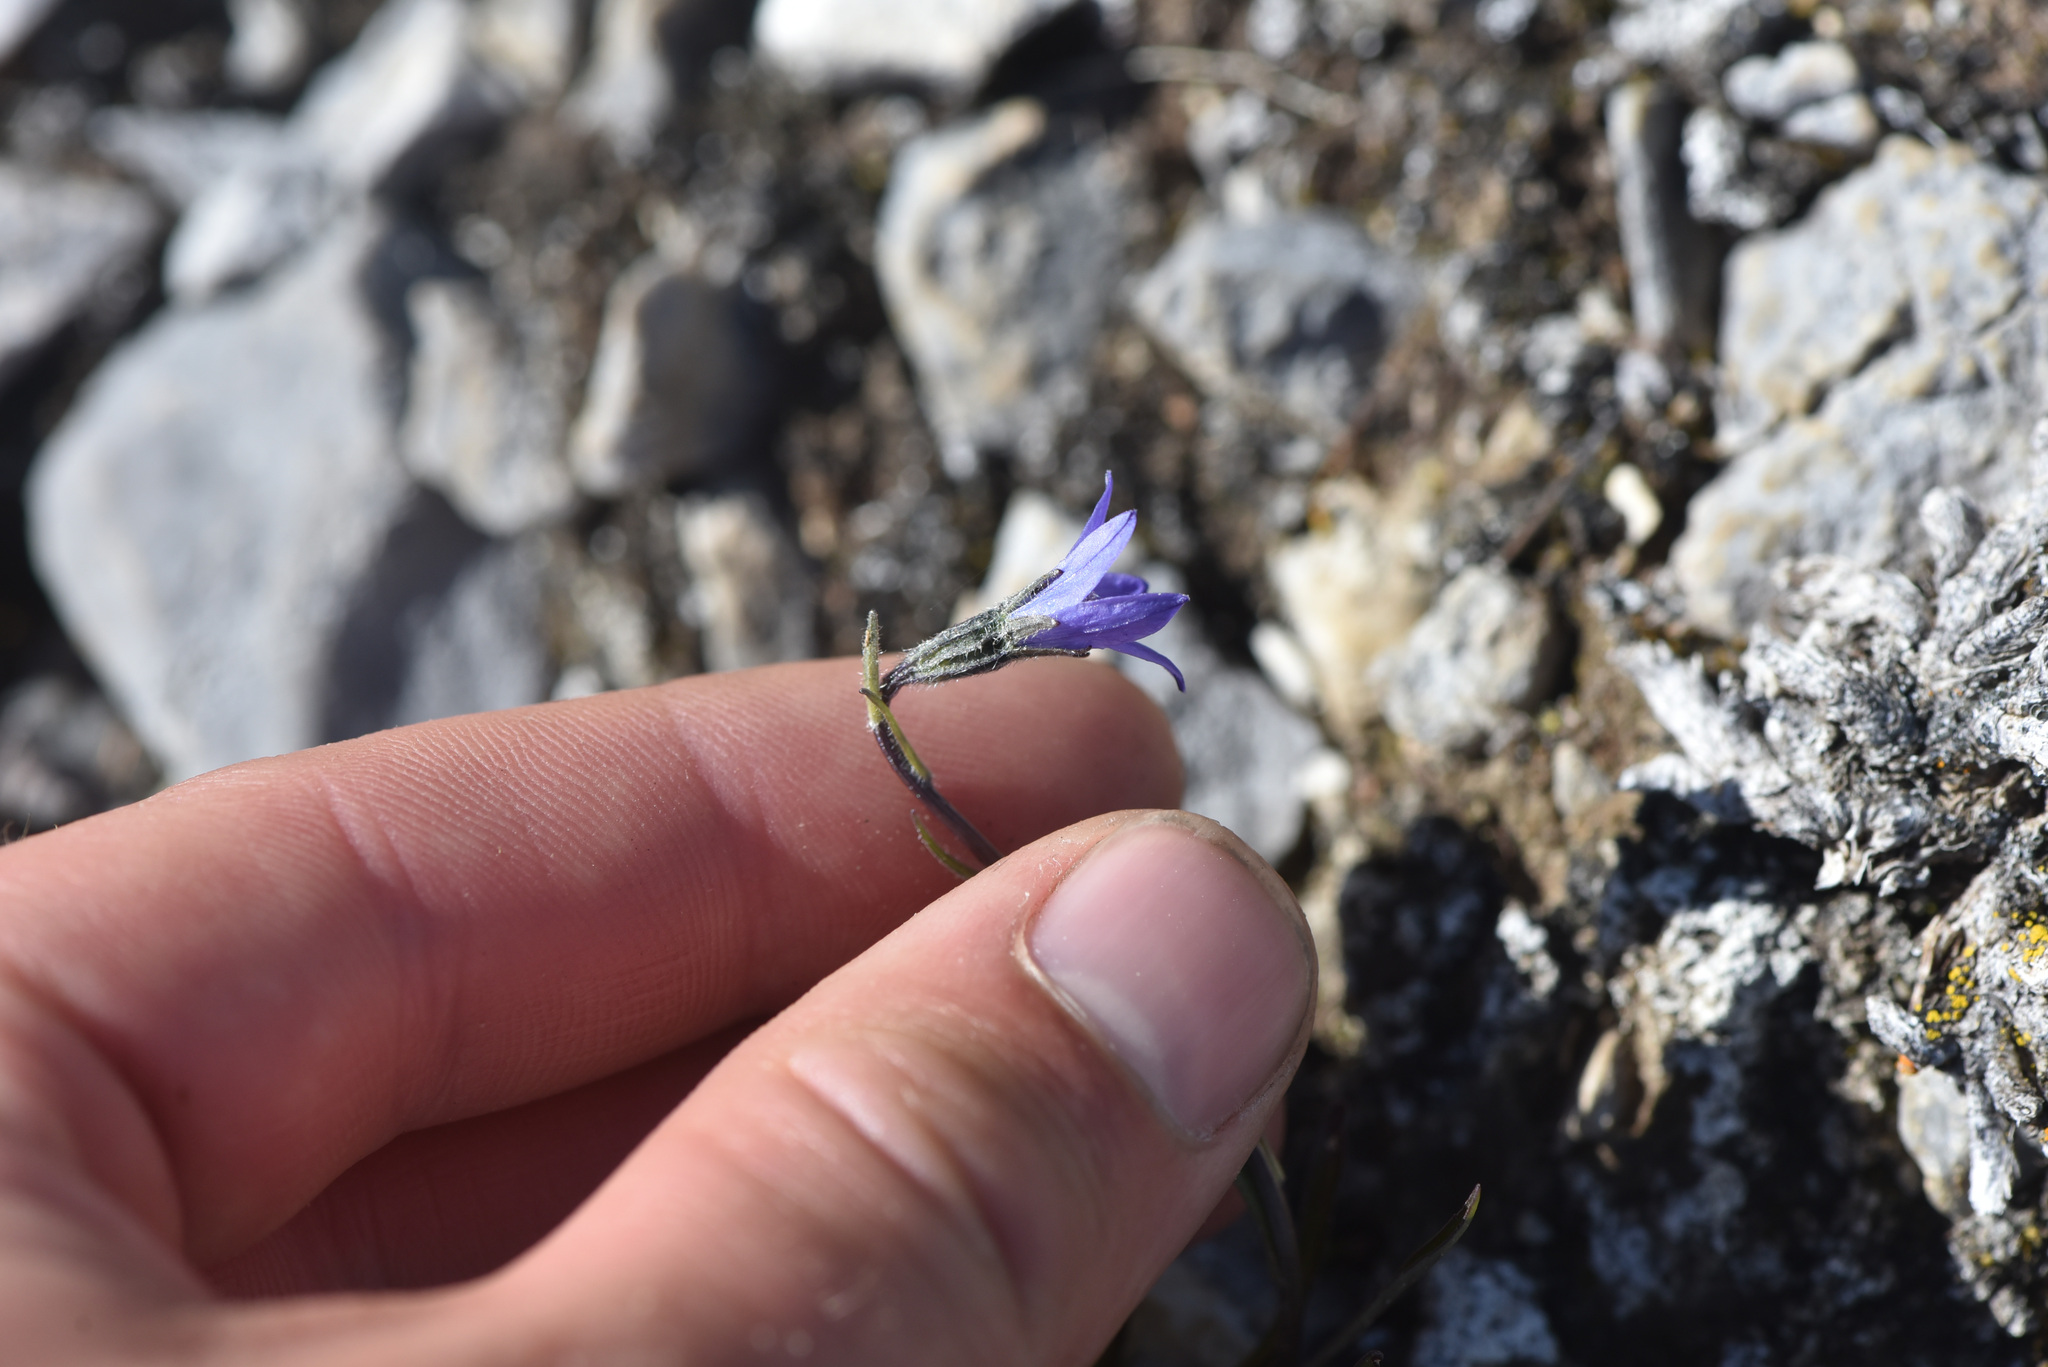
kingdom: Plantae
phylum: Tracheophyta
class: Magnoliopsida
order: Asterales
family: Campanulaceae
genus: Campanula
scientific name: Campanula uniflora
